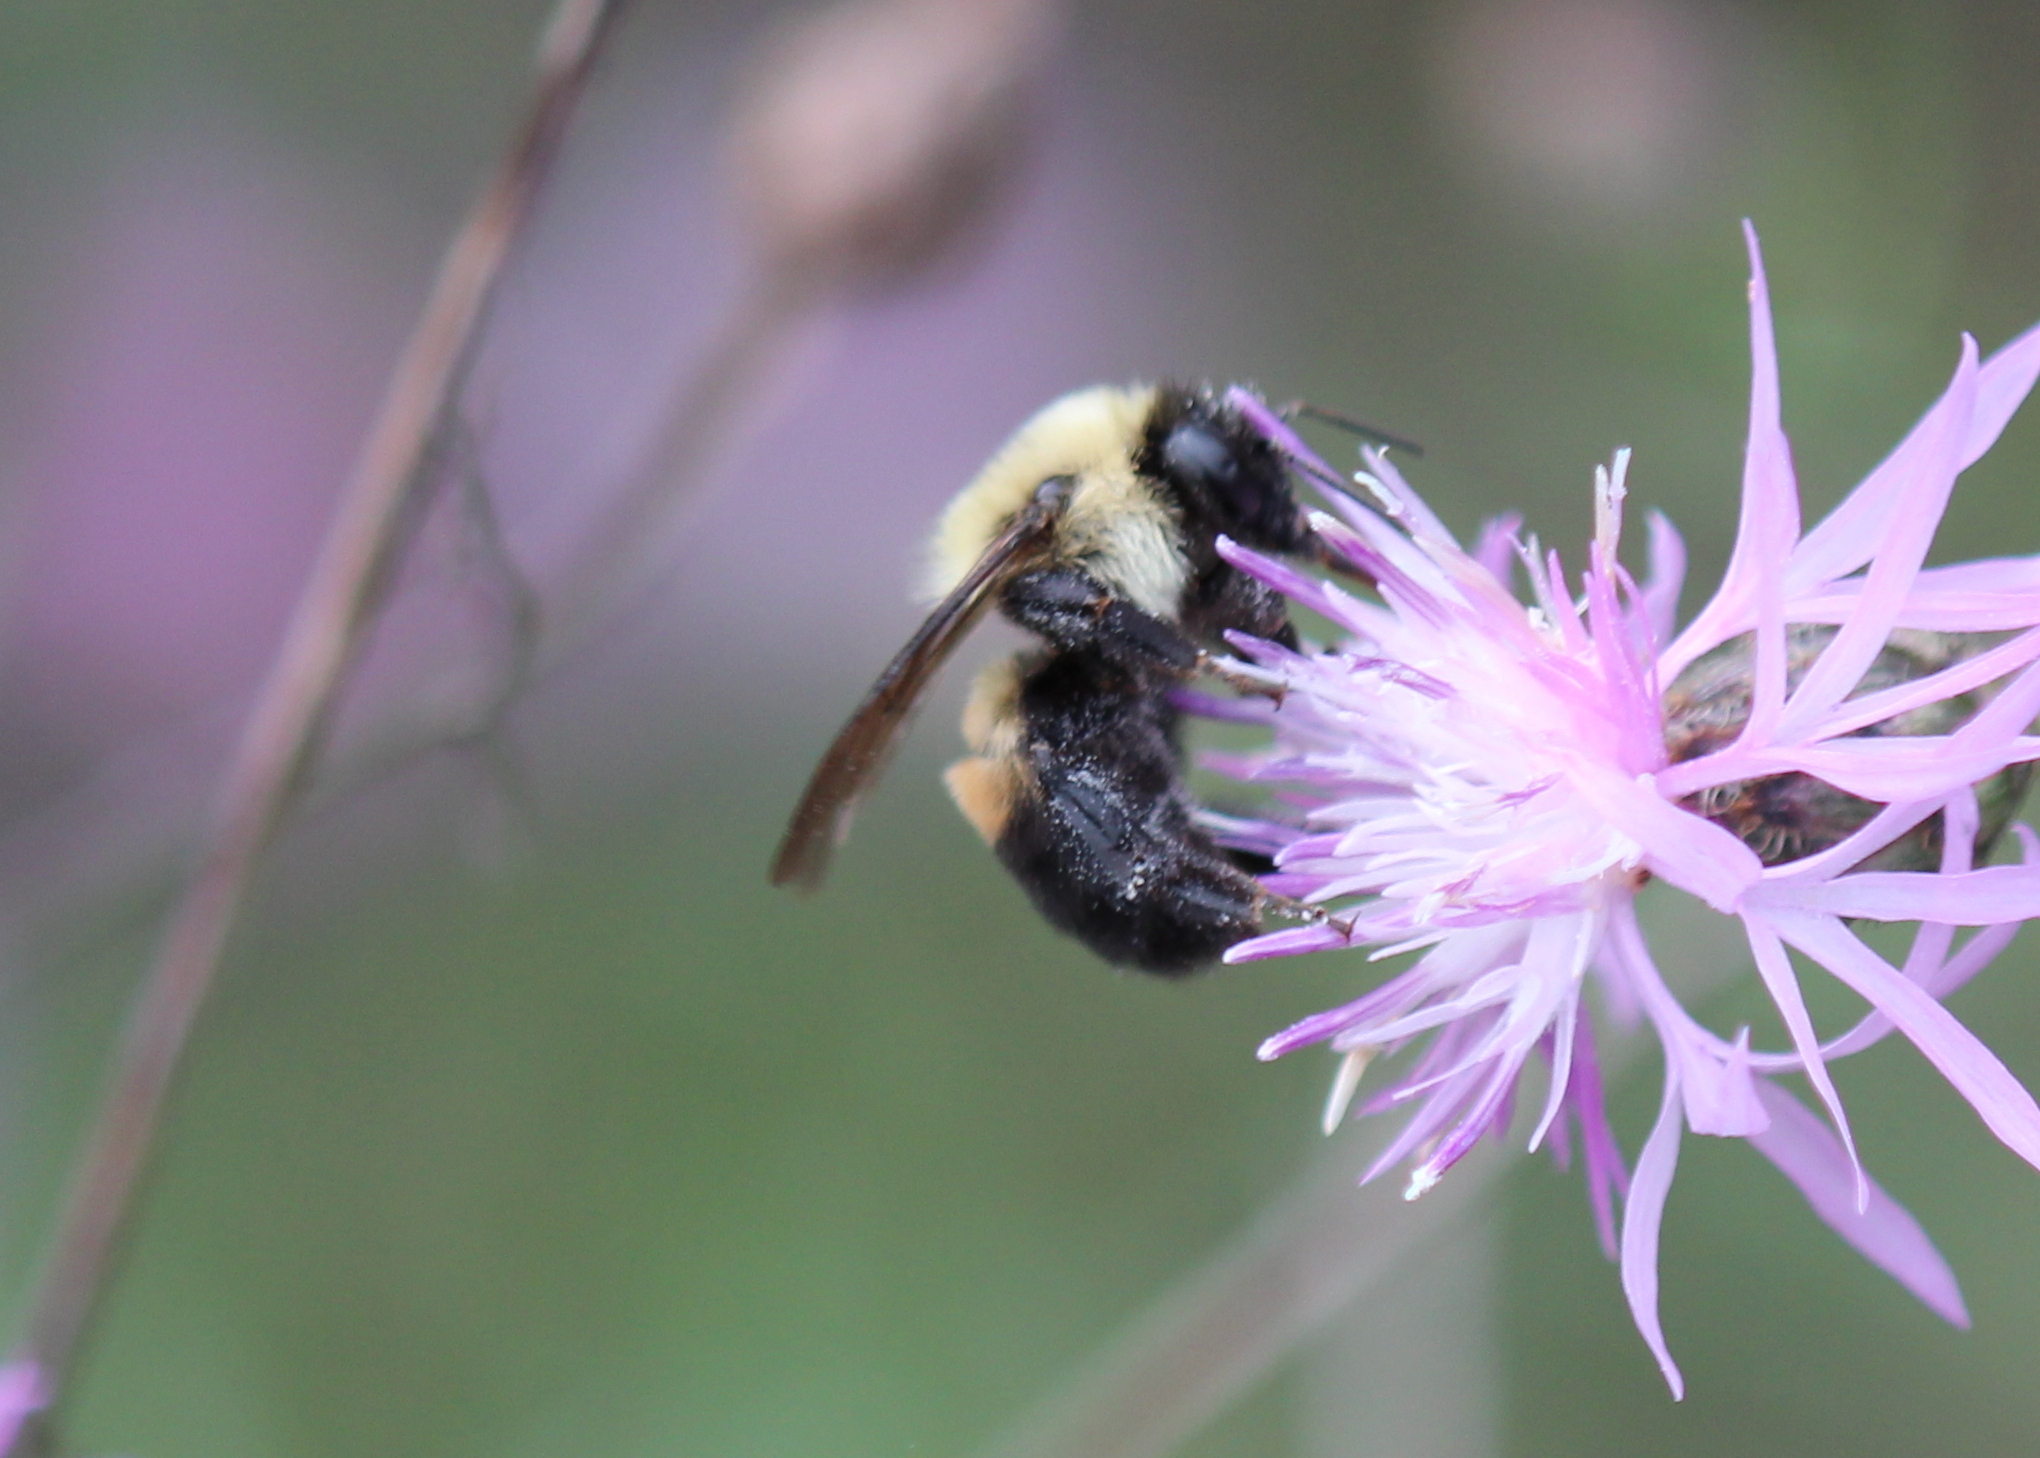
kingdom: Animalia
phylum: Arthropoda
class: Insecta
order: Hymenoptera
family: Apidae
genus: Bombus
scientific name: Bombus griseocollis
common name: Brown-belted bumble bee
